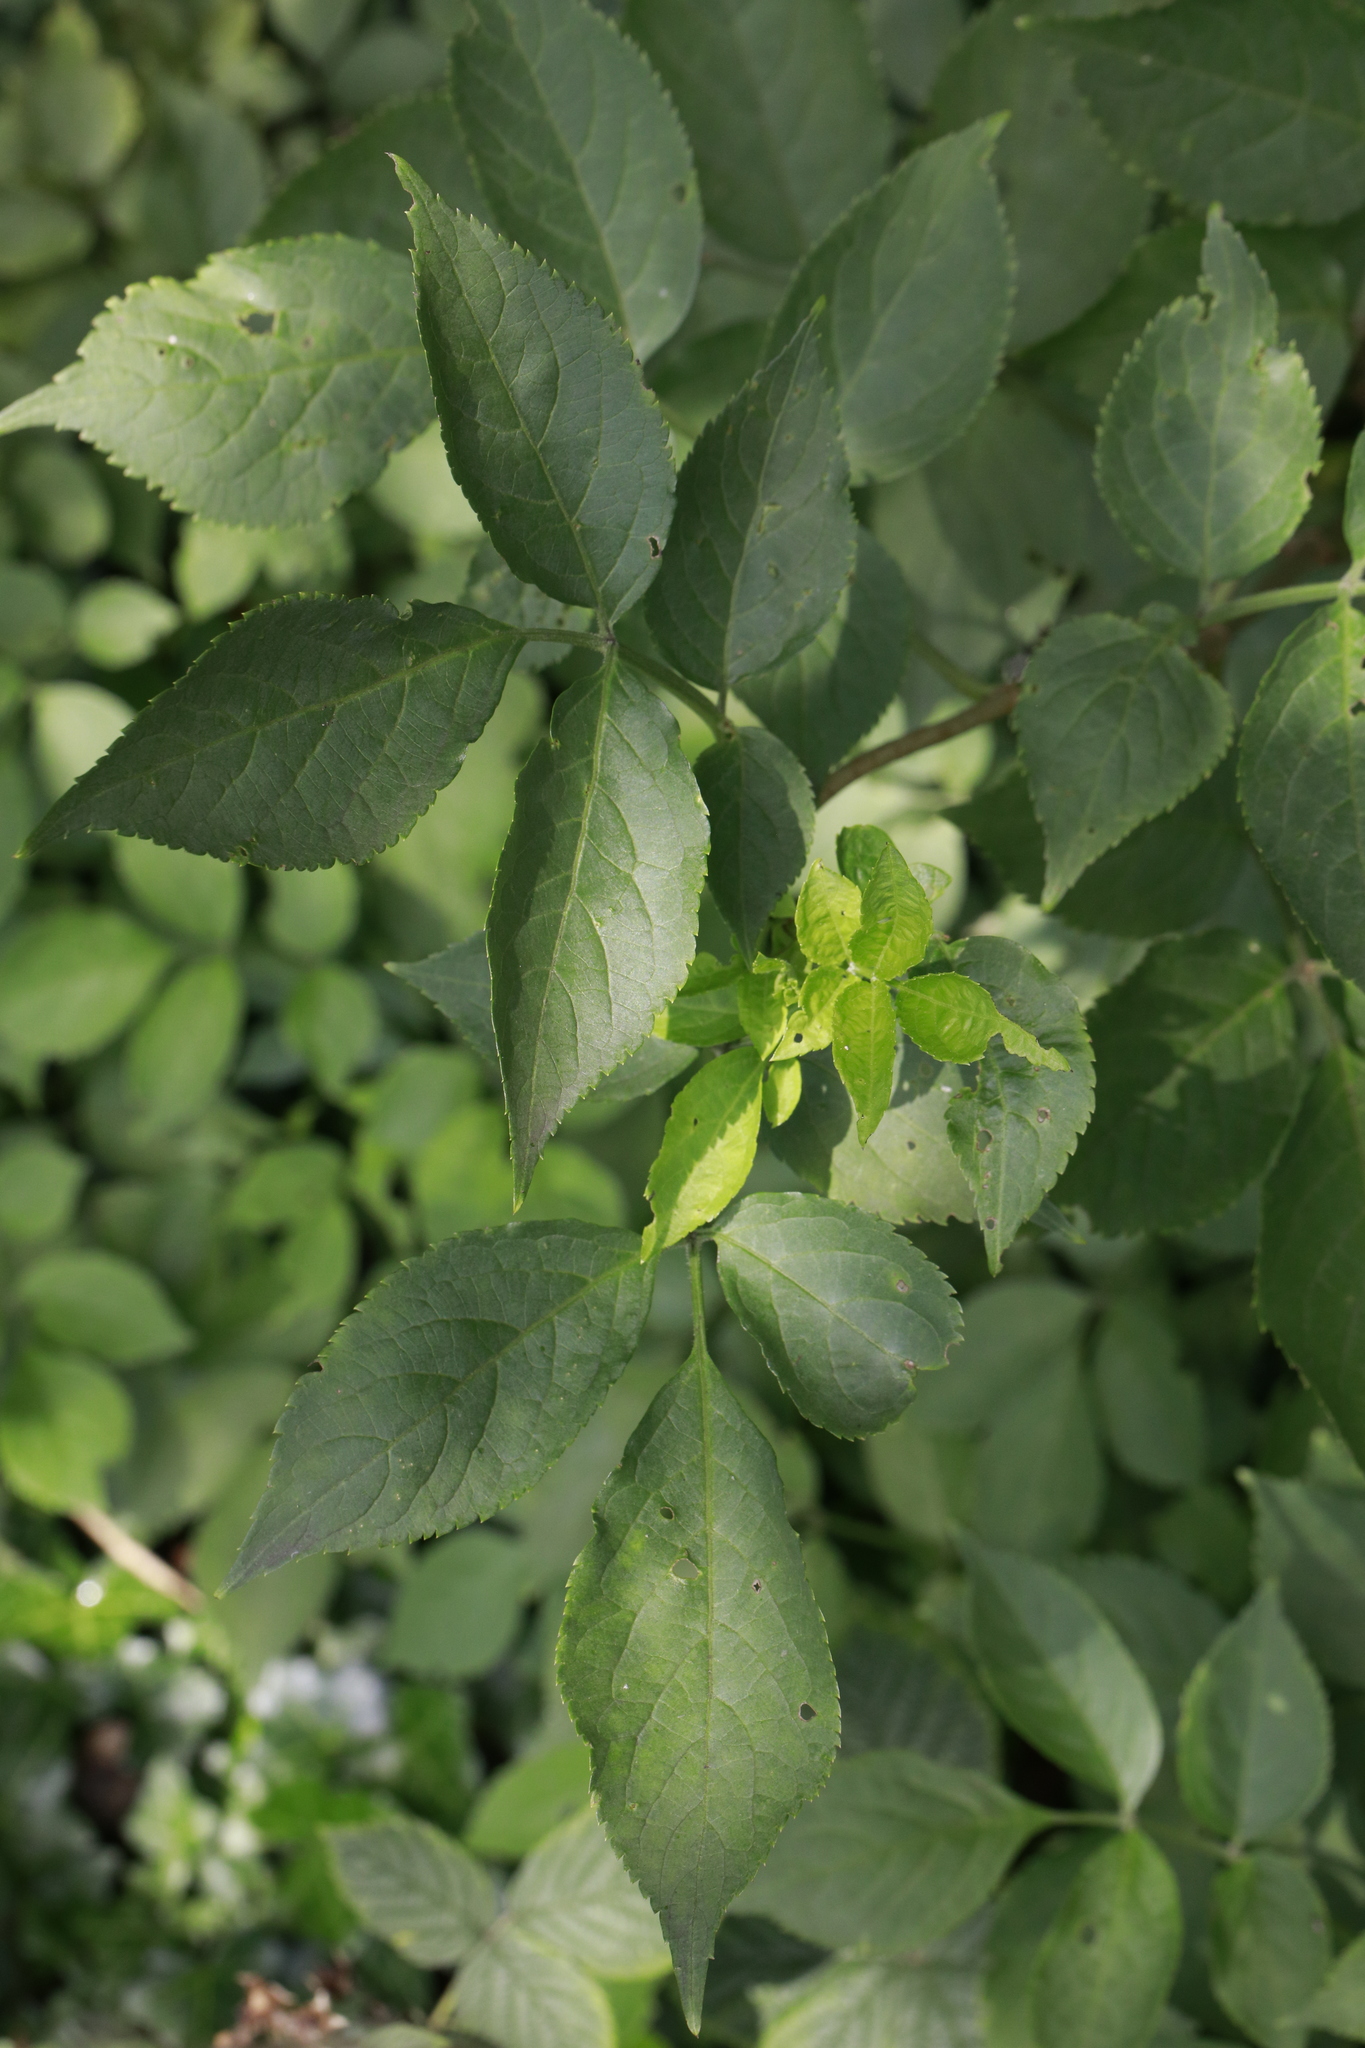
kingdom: Plantae
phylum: Tracheophyta
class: Magnoliopsida
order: Dipsacales
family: Viburnaceae
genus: Sambucus
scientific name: Sambucus nigra
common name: Elder
